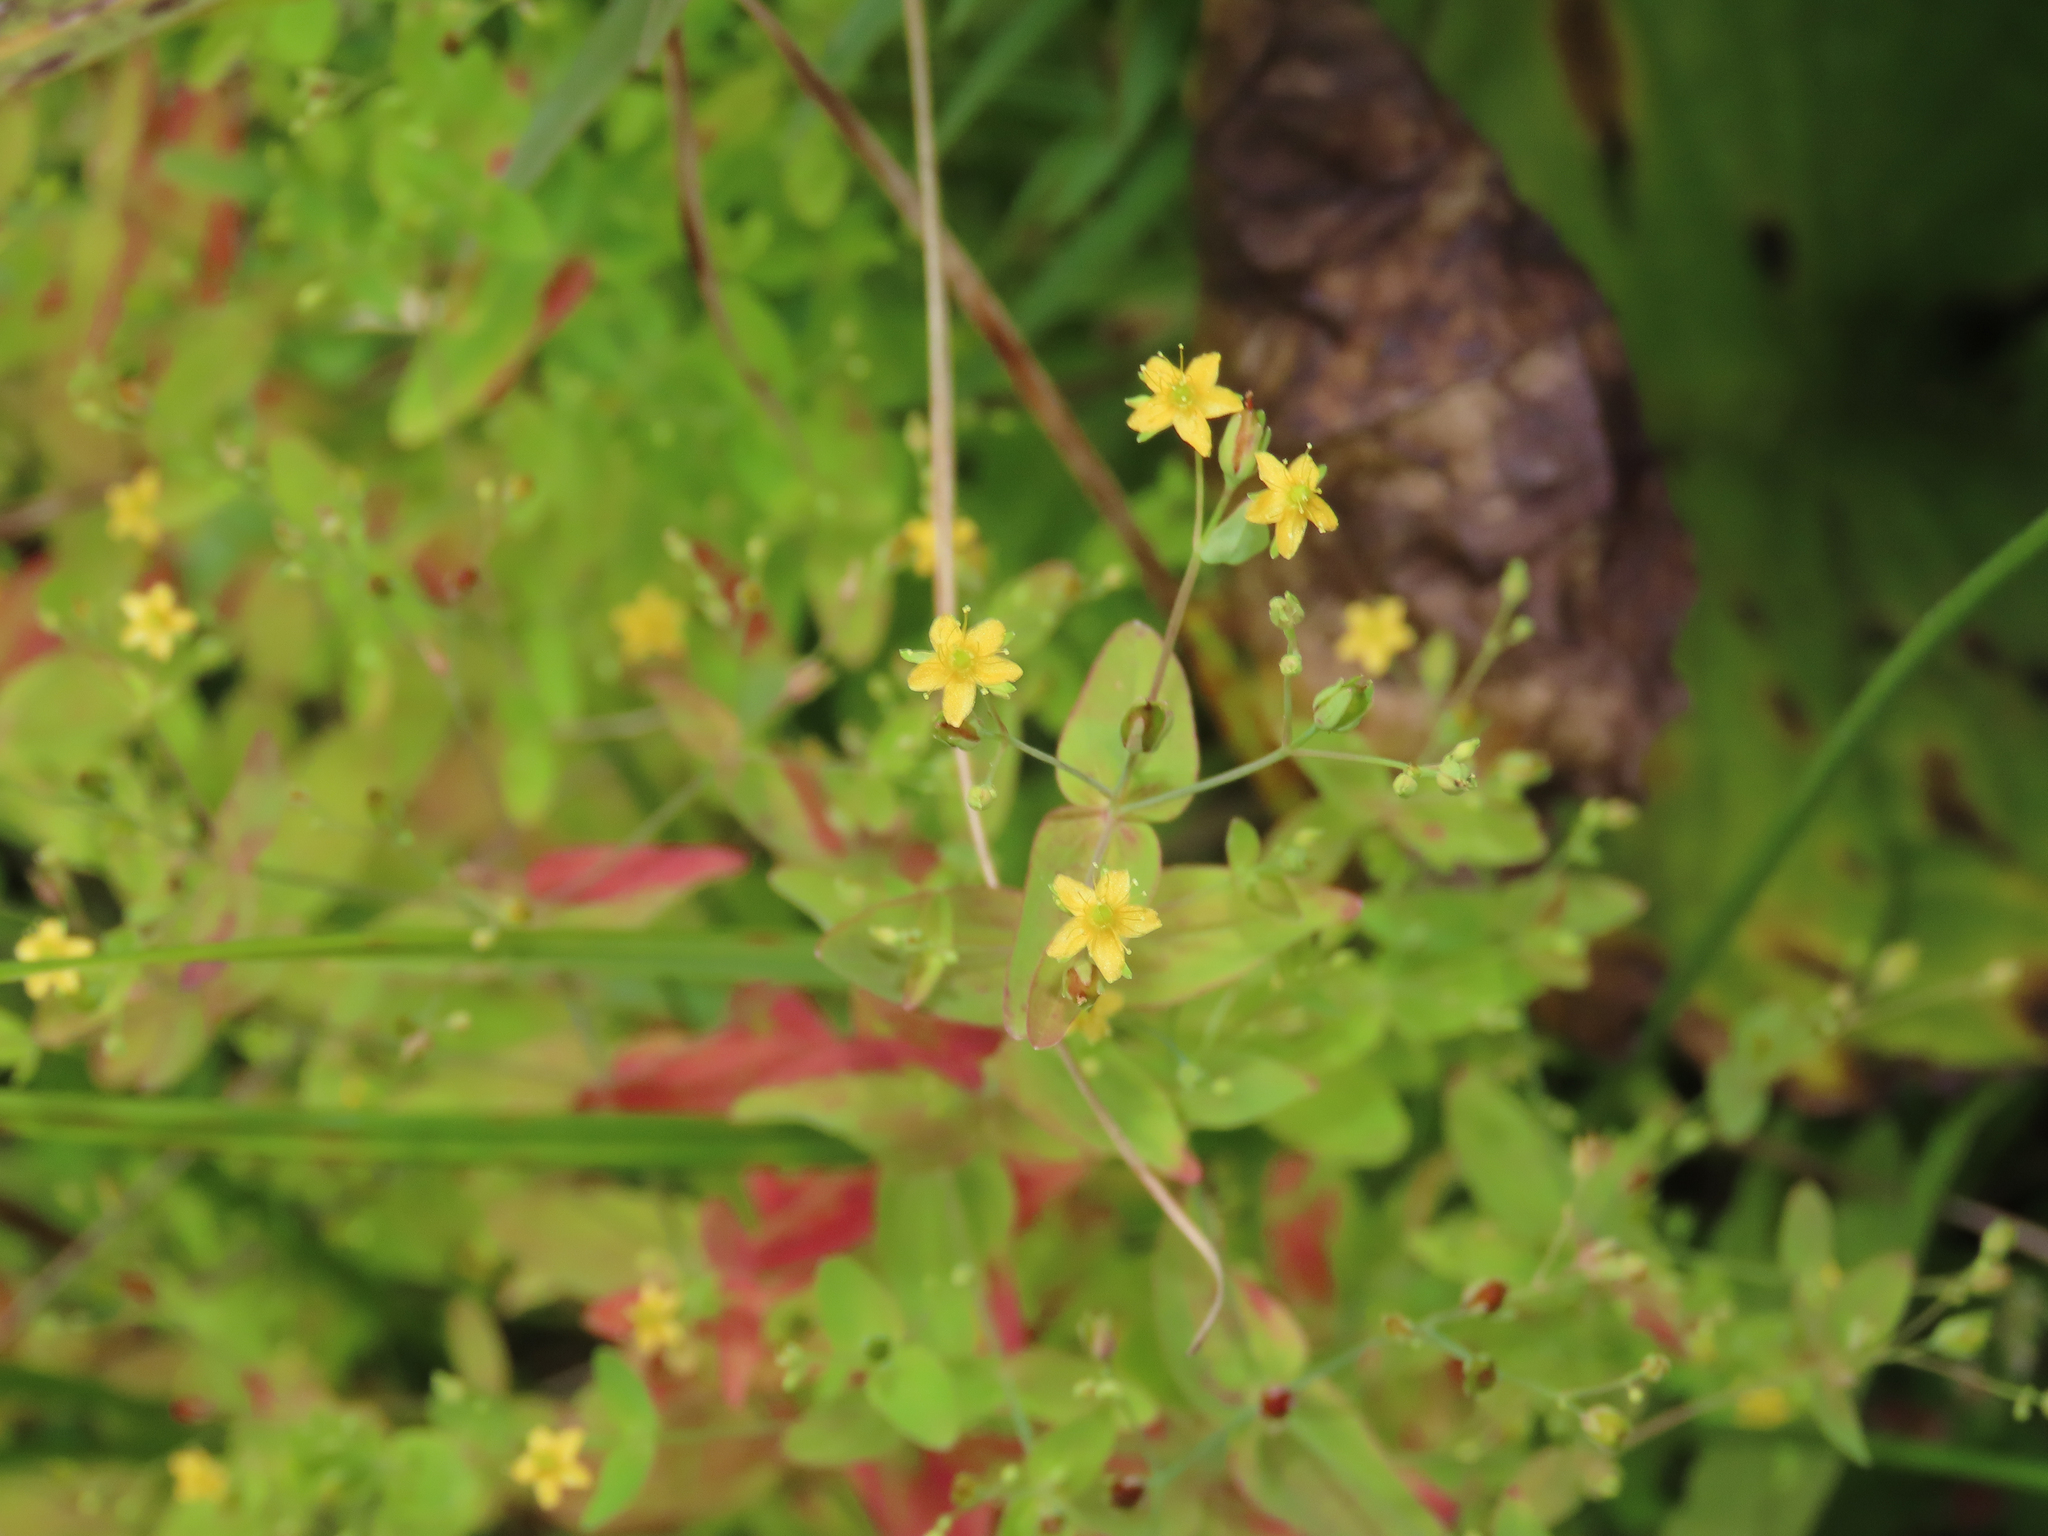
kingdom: Plantae
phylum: Tracheophyta
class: Magnoliopsida
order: Malpighiales
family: Hypericaceae
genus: Hypericum
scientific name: Hypericum mutilum
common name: Dwarf st. john's-wort
